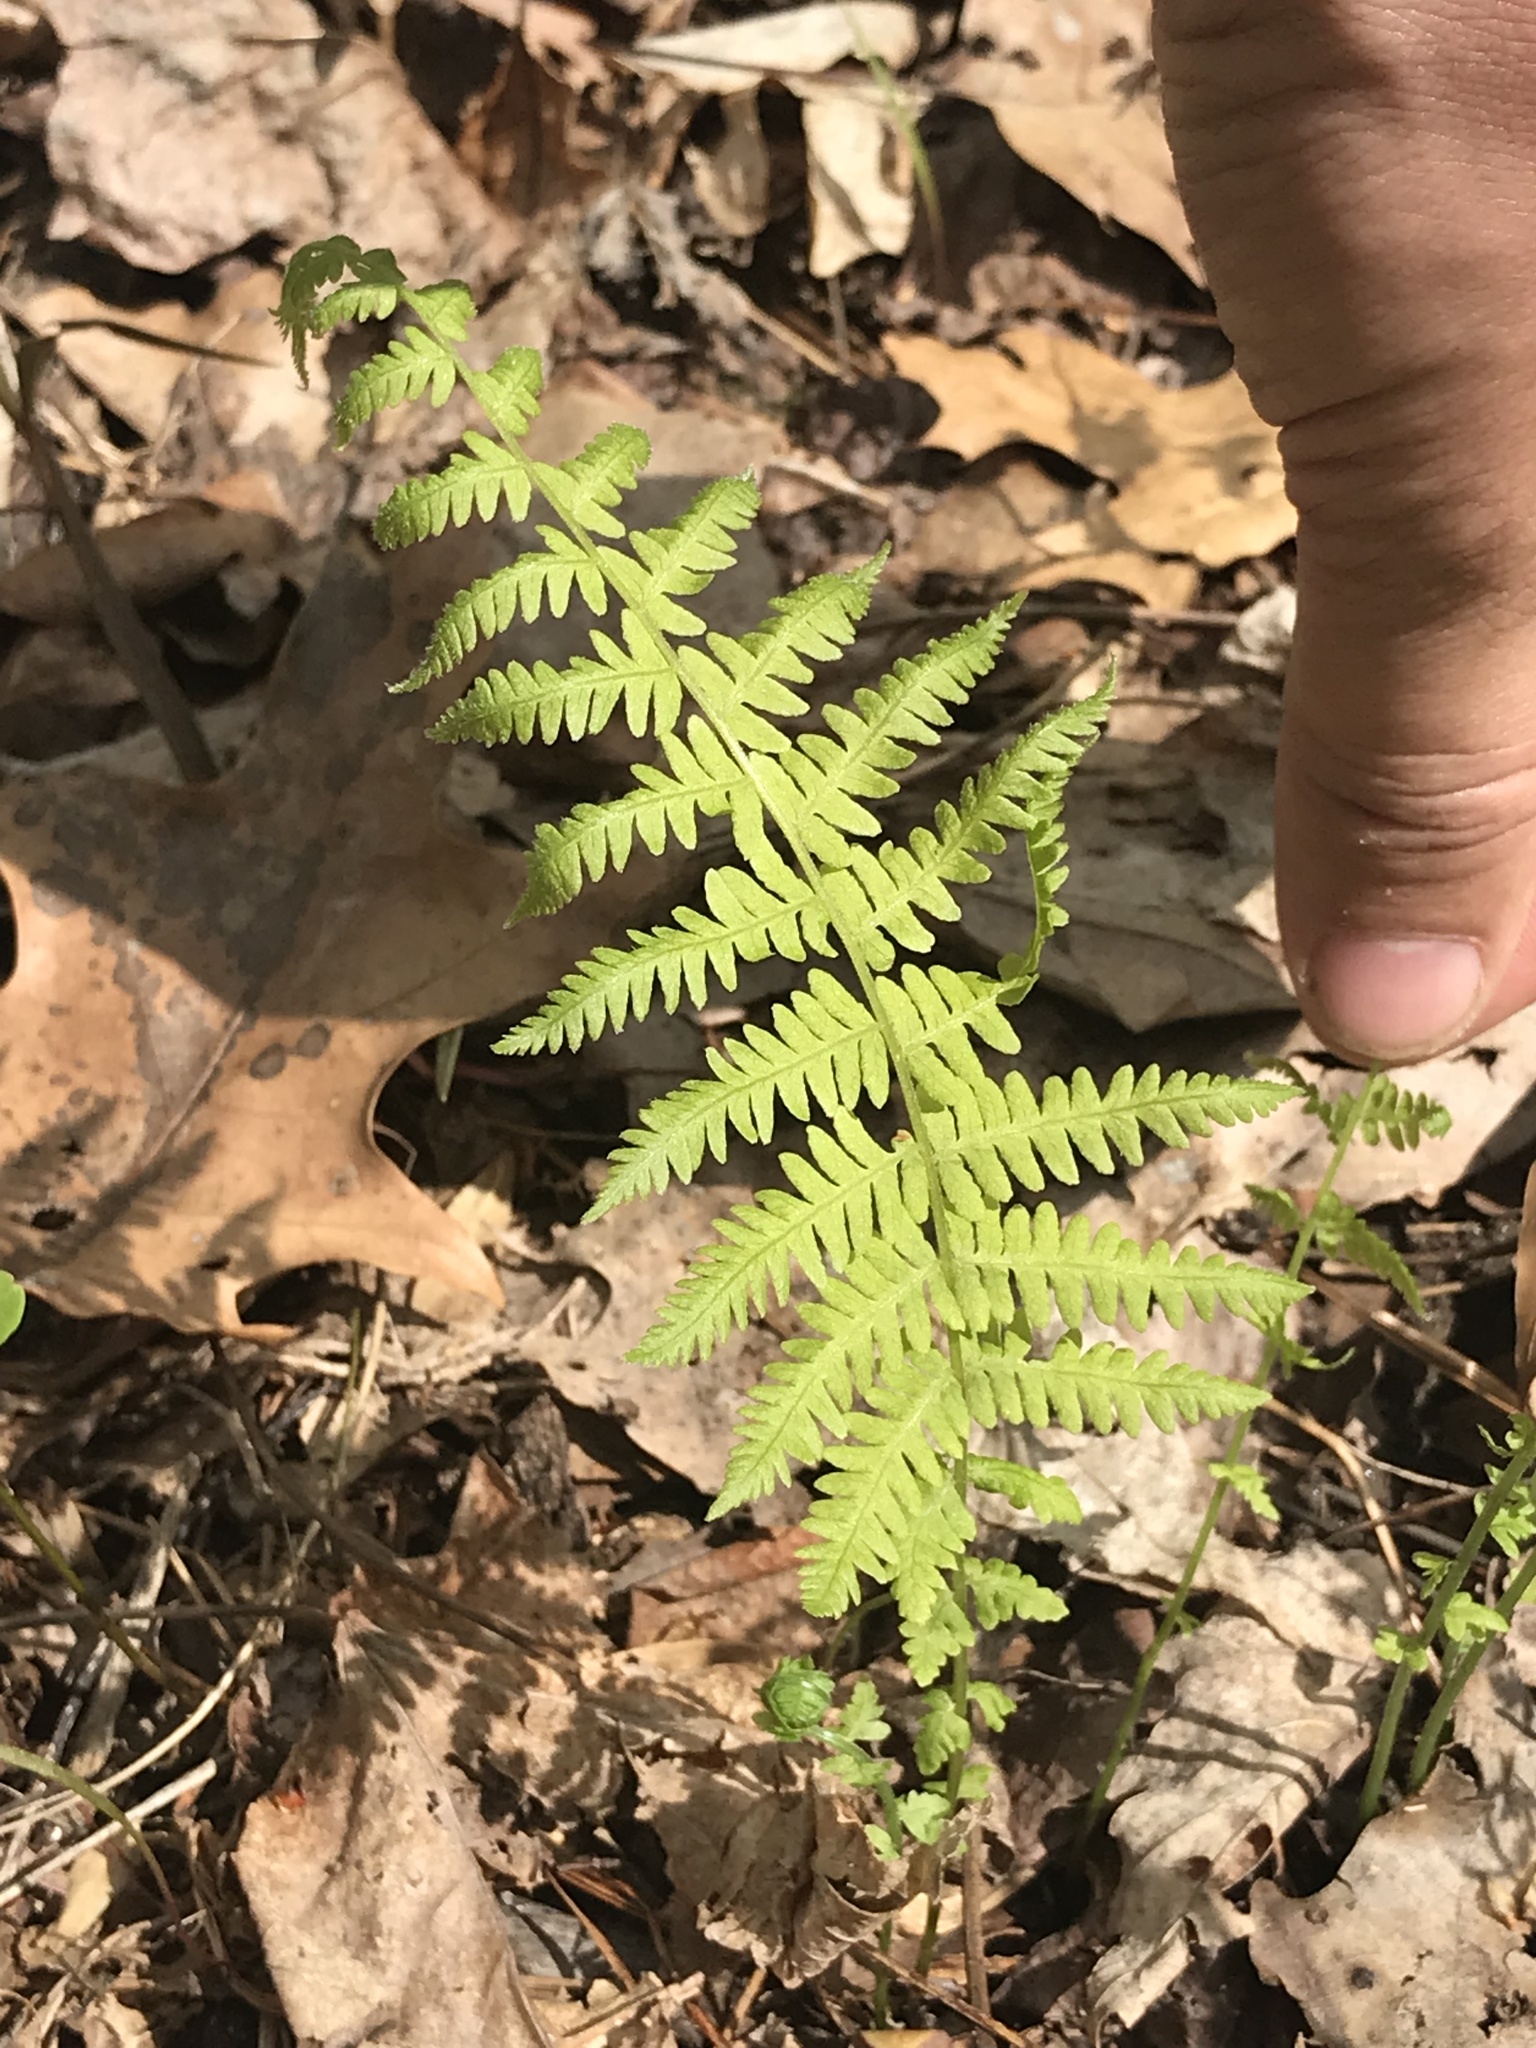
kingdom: Plantae
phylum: Tracheophyta
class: Polypodiopsida
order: Polypodiales
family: Thelypteridaceae
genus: Amauropelta
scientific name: Amauropelta noveboracensis
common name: New york fern
